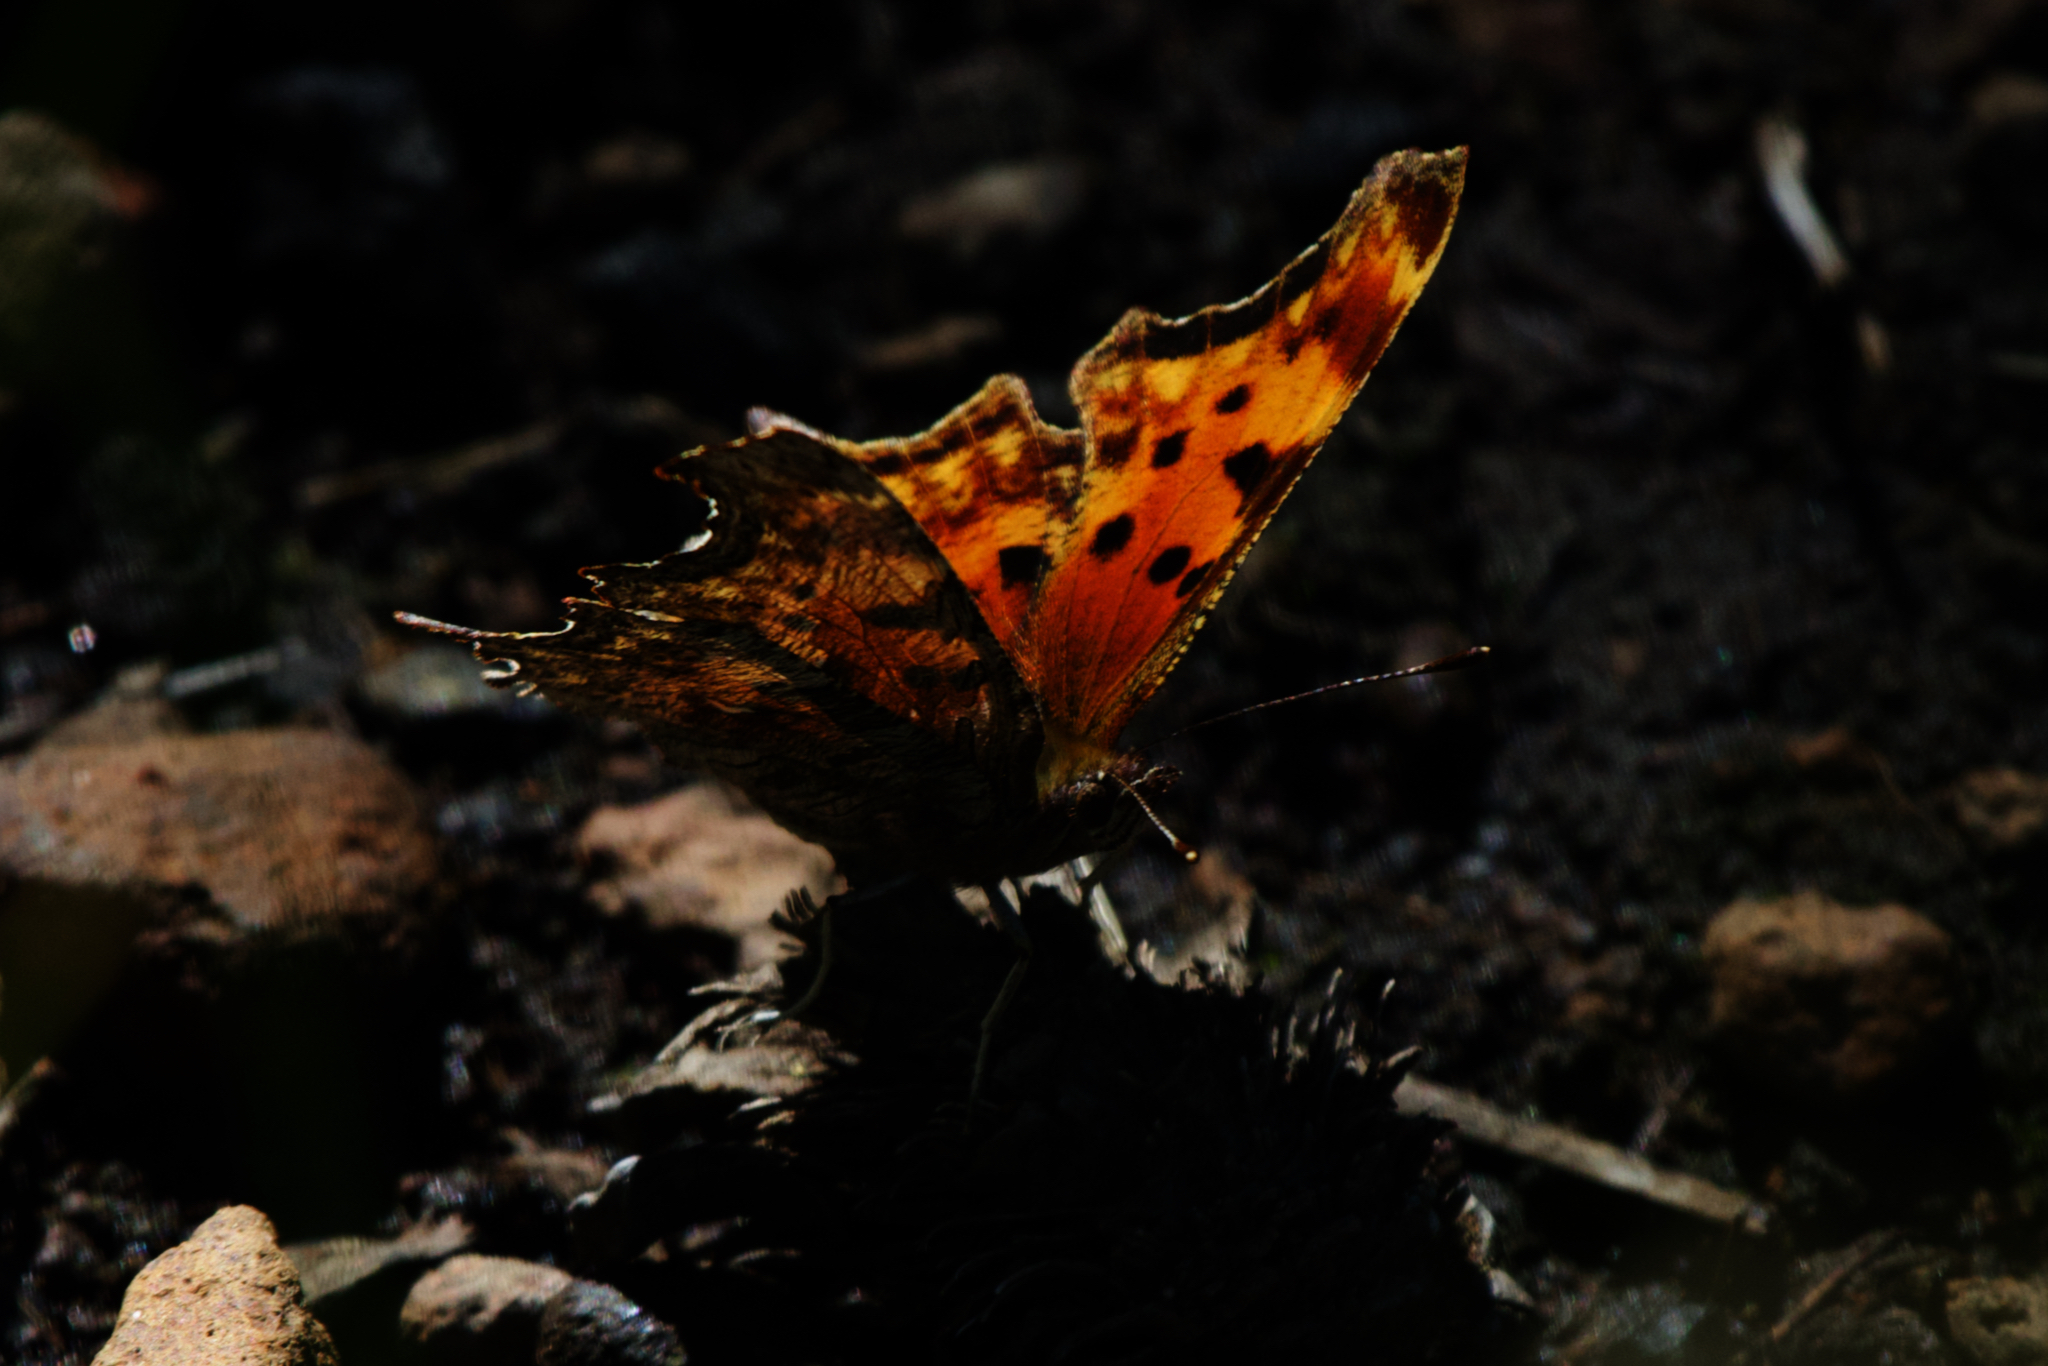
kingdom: Animalia
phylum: Arthropoda
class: Insecta
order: Lepidoptera
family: Nymphalidae
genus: Polygonia
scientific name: Polygonia gracilis
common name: Hoary comma
